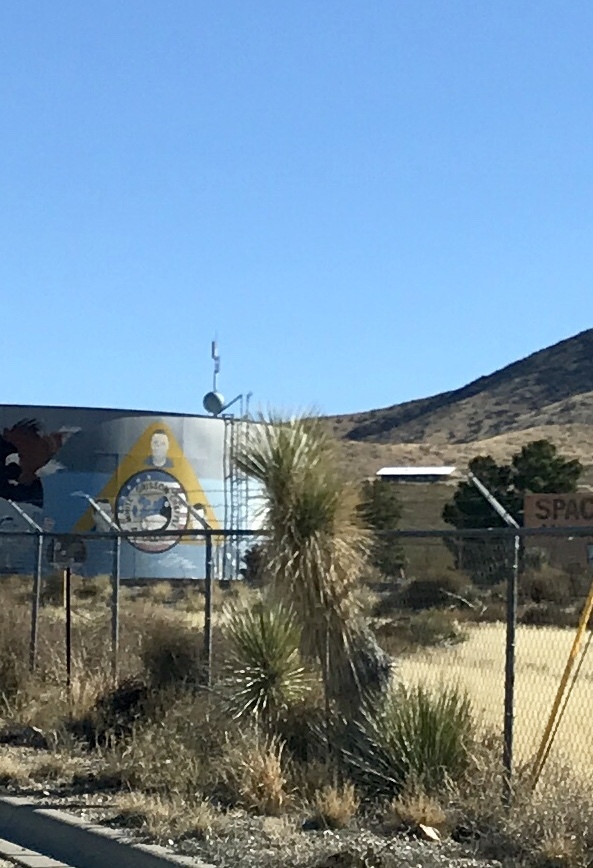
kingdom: Plantae
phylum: Tracheophyta
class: Liliopsida
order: Asparagales
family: Asparagaceae
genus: Yucca
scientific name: Yucca elata
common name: Palmella
